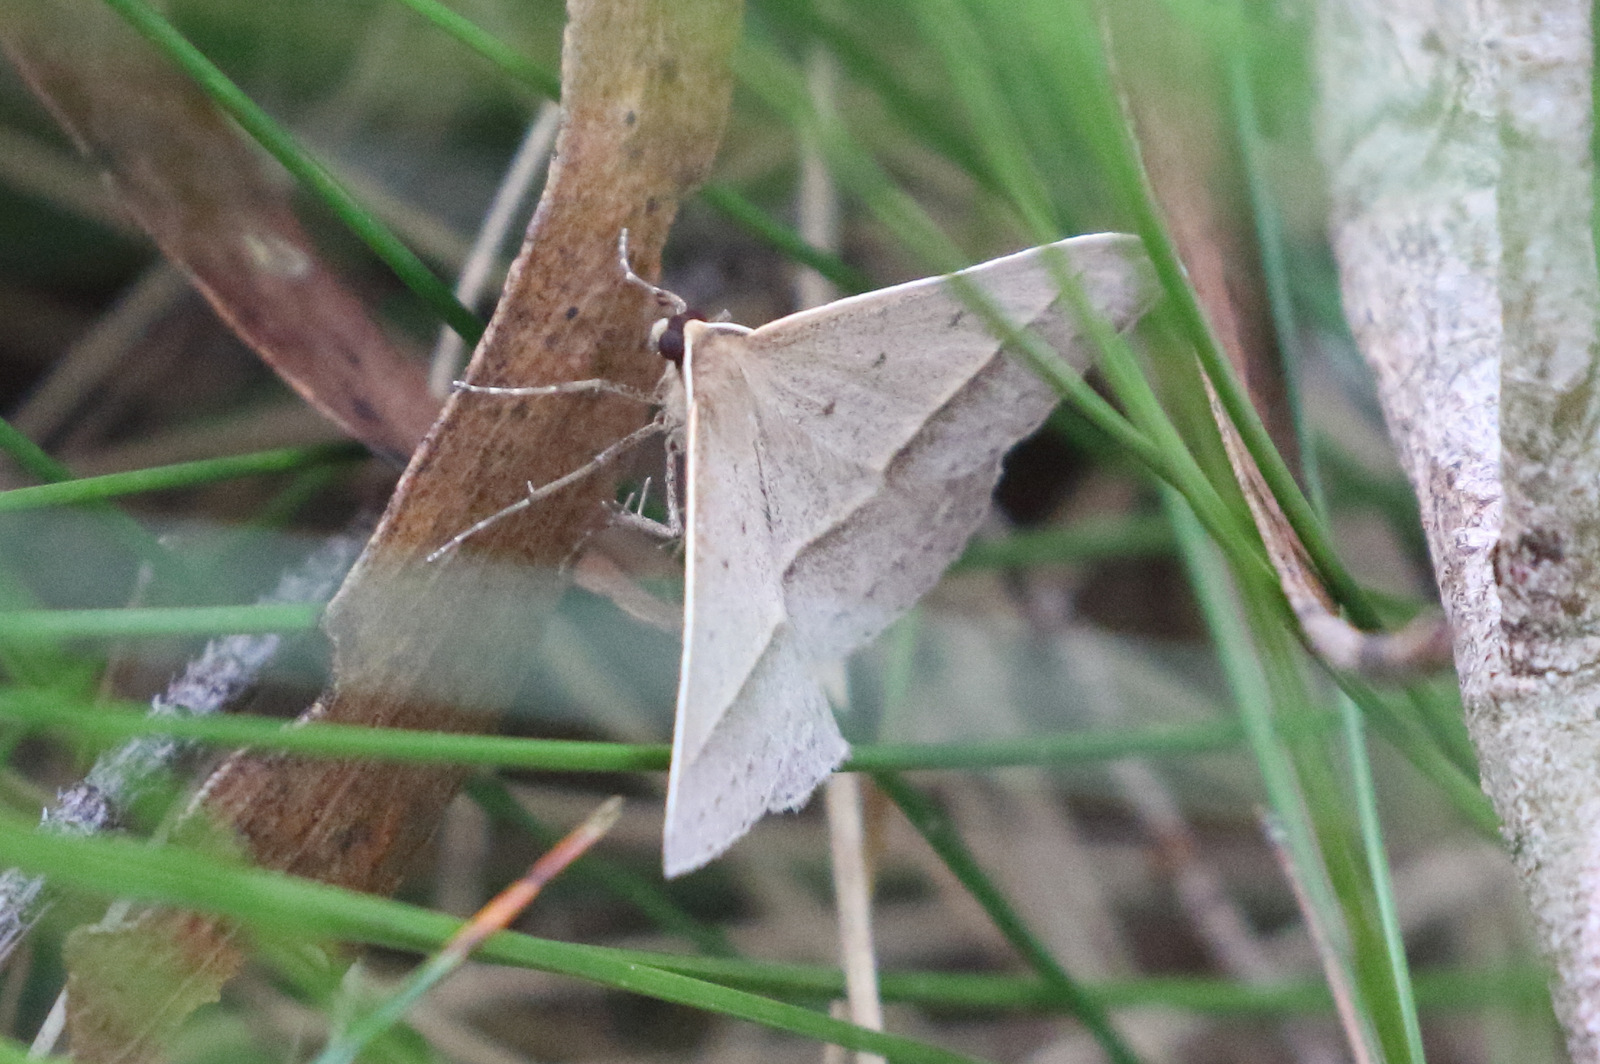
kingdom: Animalia
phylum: Arthropoda
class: Insecta
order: Lepidoptera
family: Geometridae
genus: Epidesmia
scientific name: Epidesmia tryxaria
